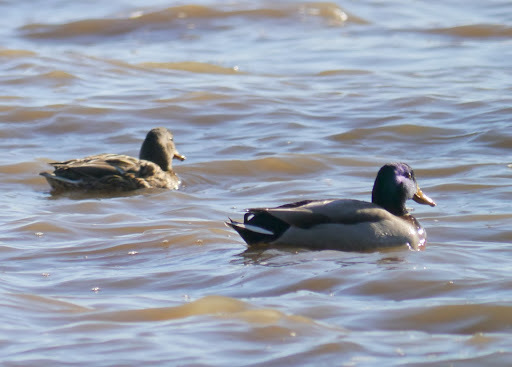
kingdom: Animalia
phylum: Chordata
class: Aves
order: Anseriformes
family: Anatidae
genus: Anas
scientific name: Anas platyrhynchos
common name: Mallard
